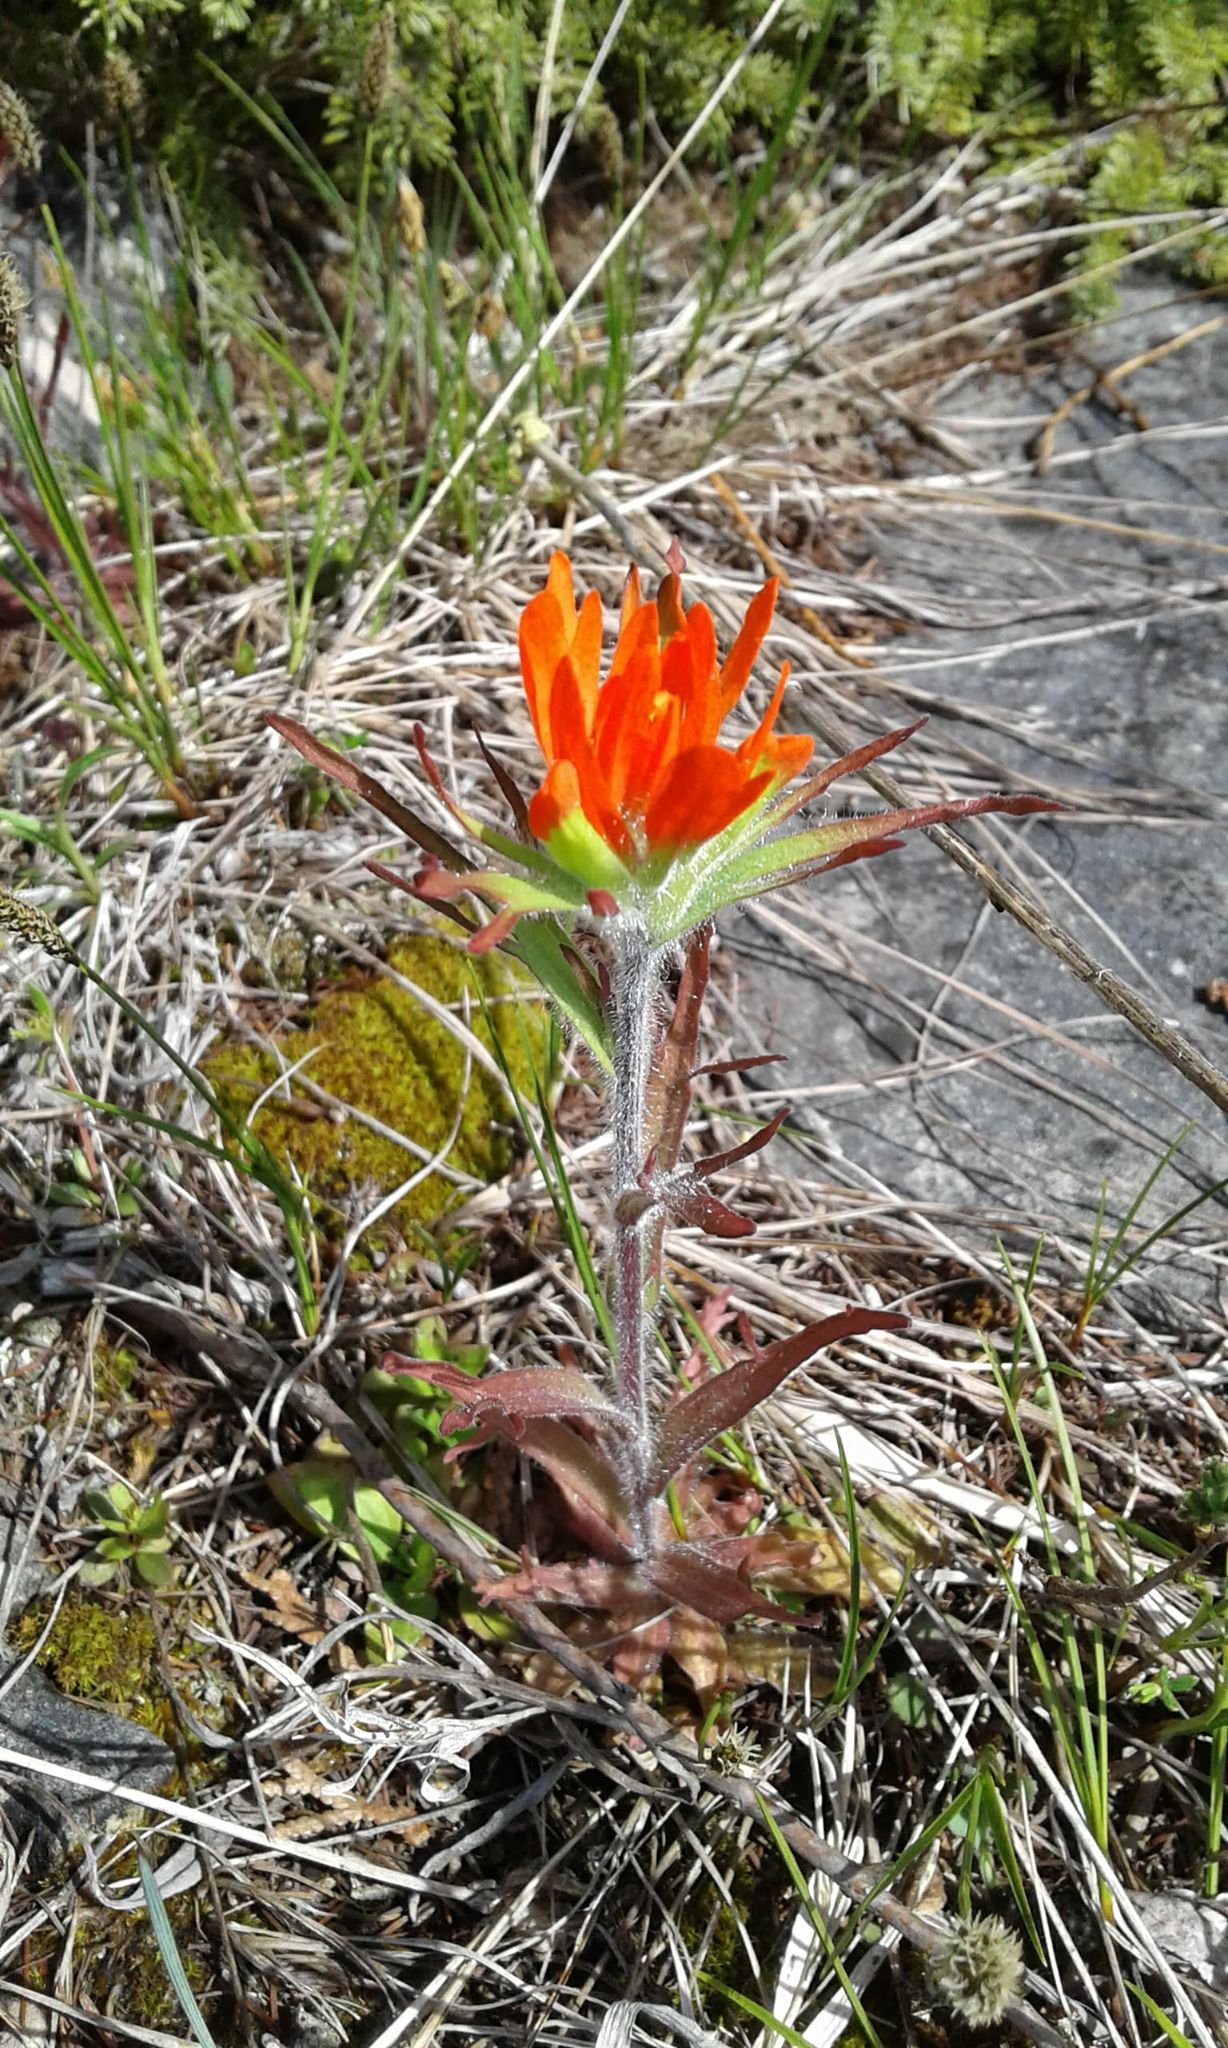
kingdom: Plantae
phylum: Tracheophyta
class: Magnoliopsida
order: Lamiales
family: Orobanchaceae
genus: Castilleja
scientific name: Castilleja coccinea
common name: Scarlet paintbrush
